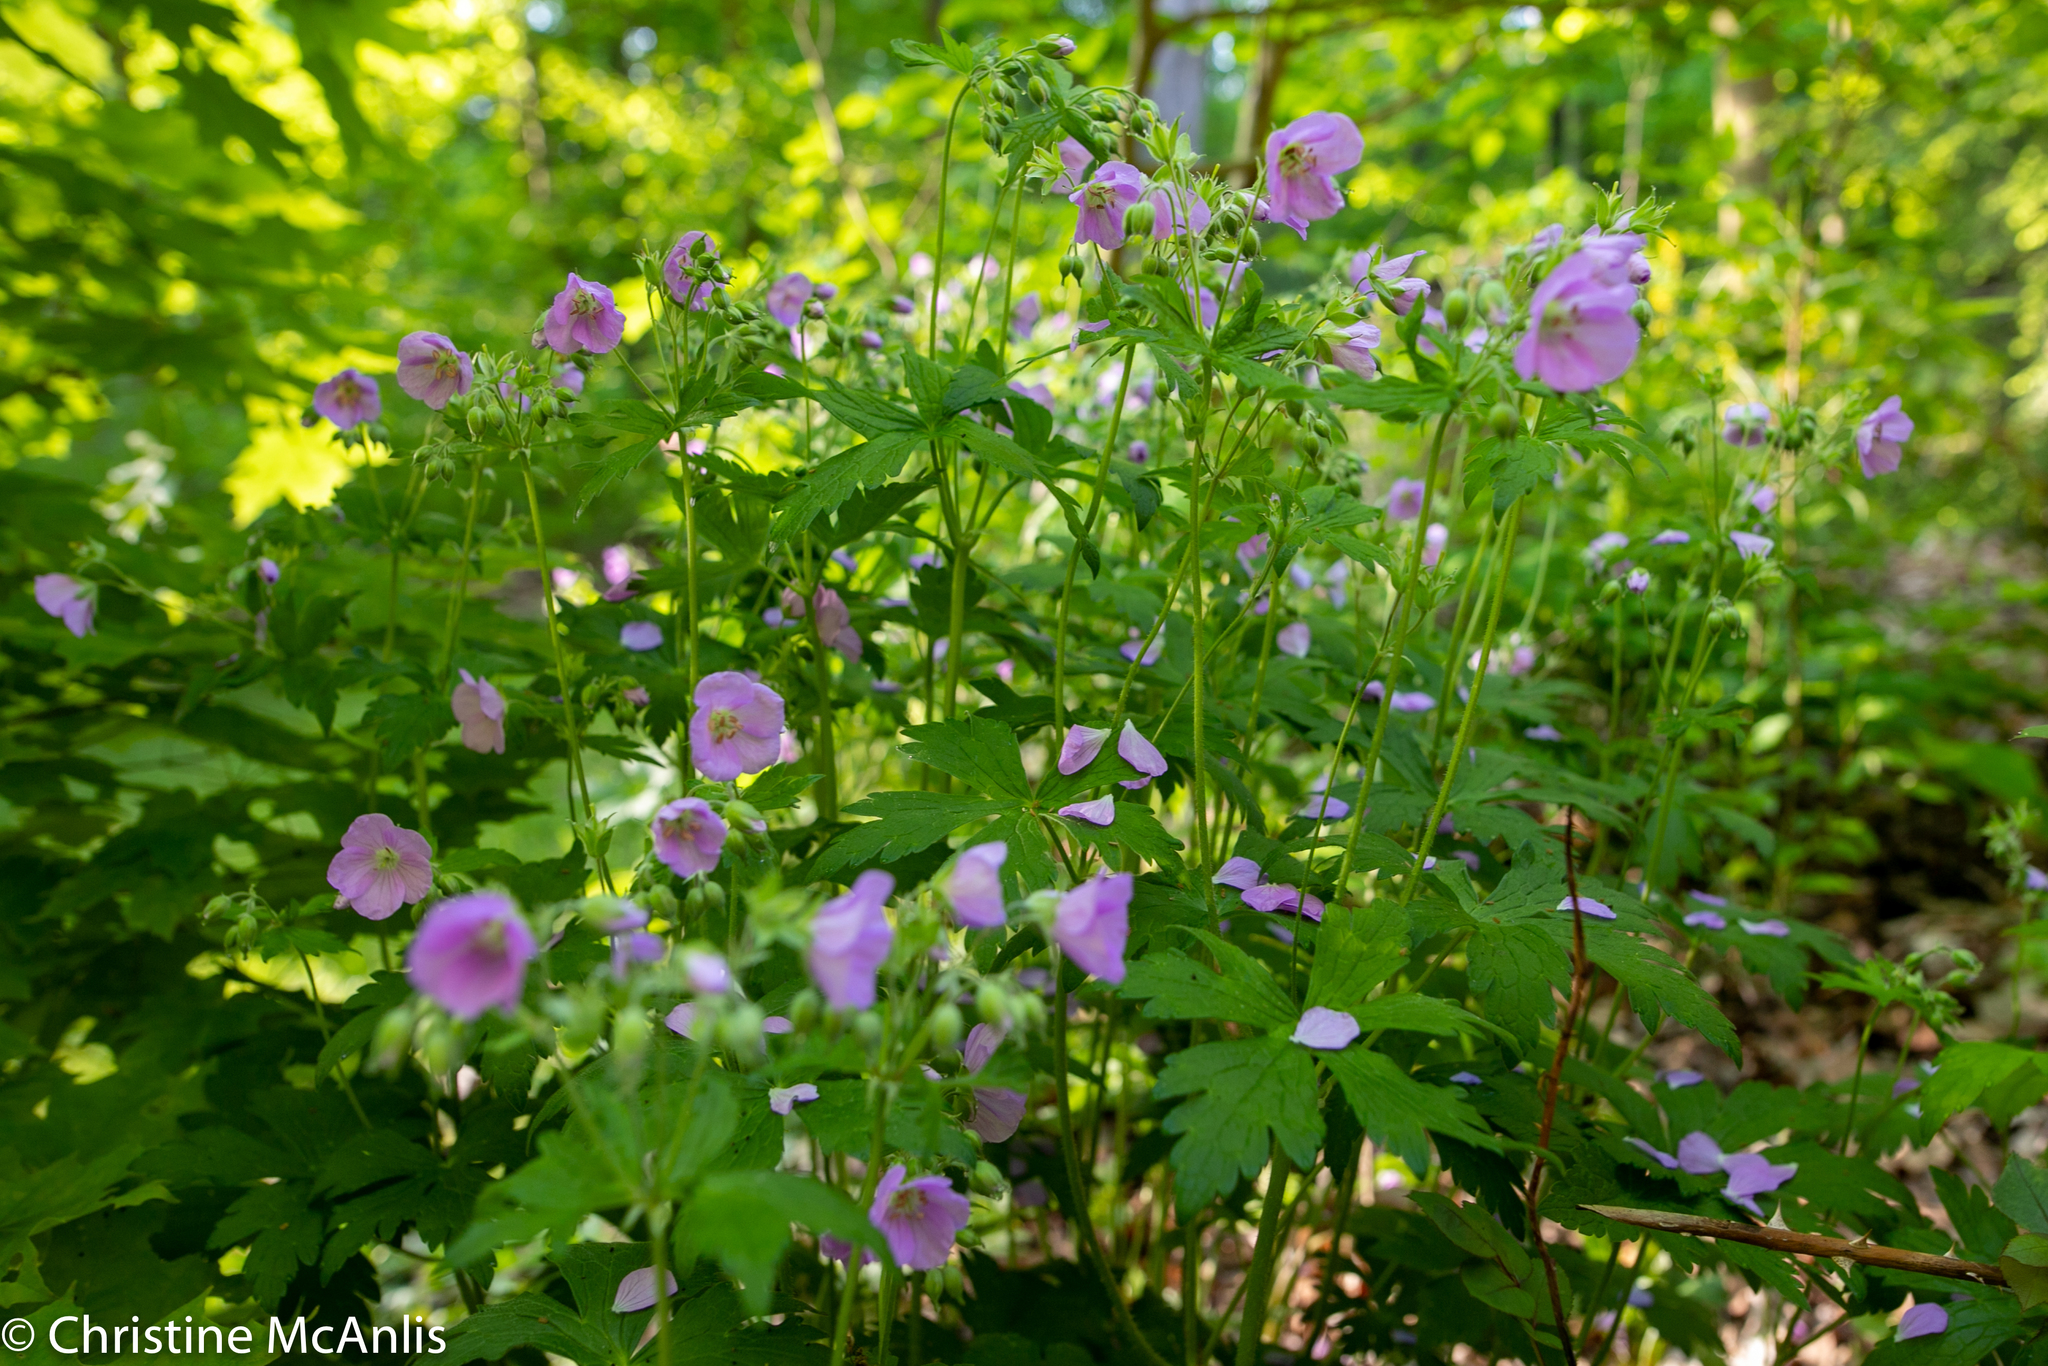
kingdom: Plantae
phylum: Tracheophyta
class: Magnoliopsida
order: Geraniales
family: Geraniaceae
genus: Geranium
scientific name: Geranium maculatum
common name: Spotted geranium
